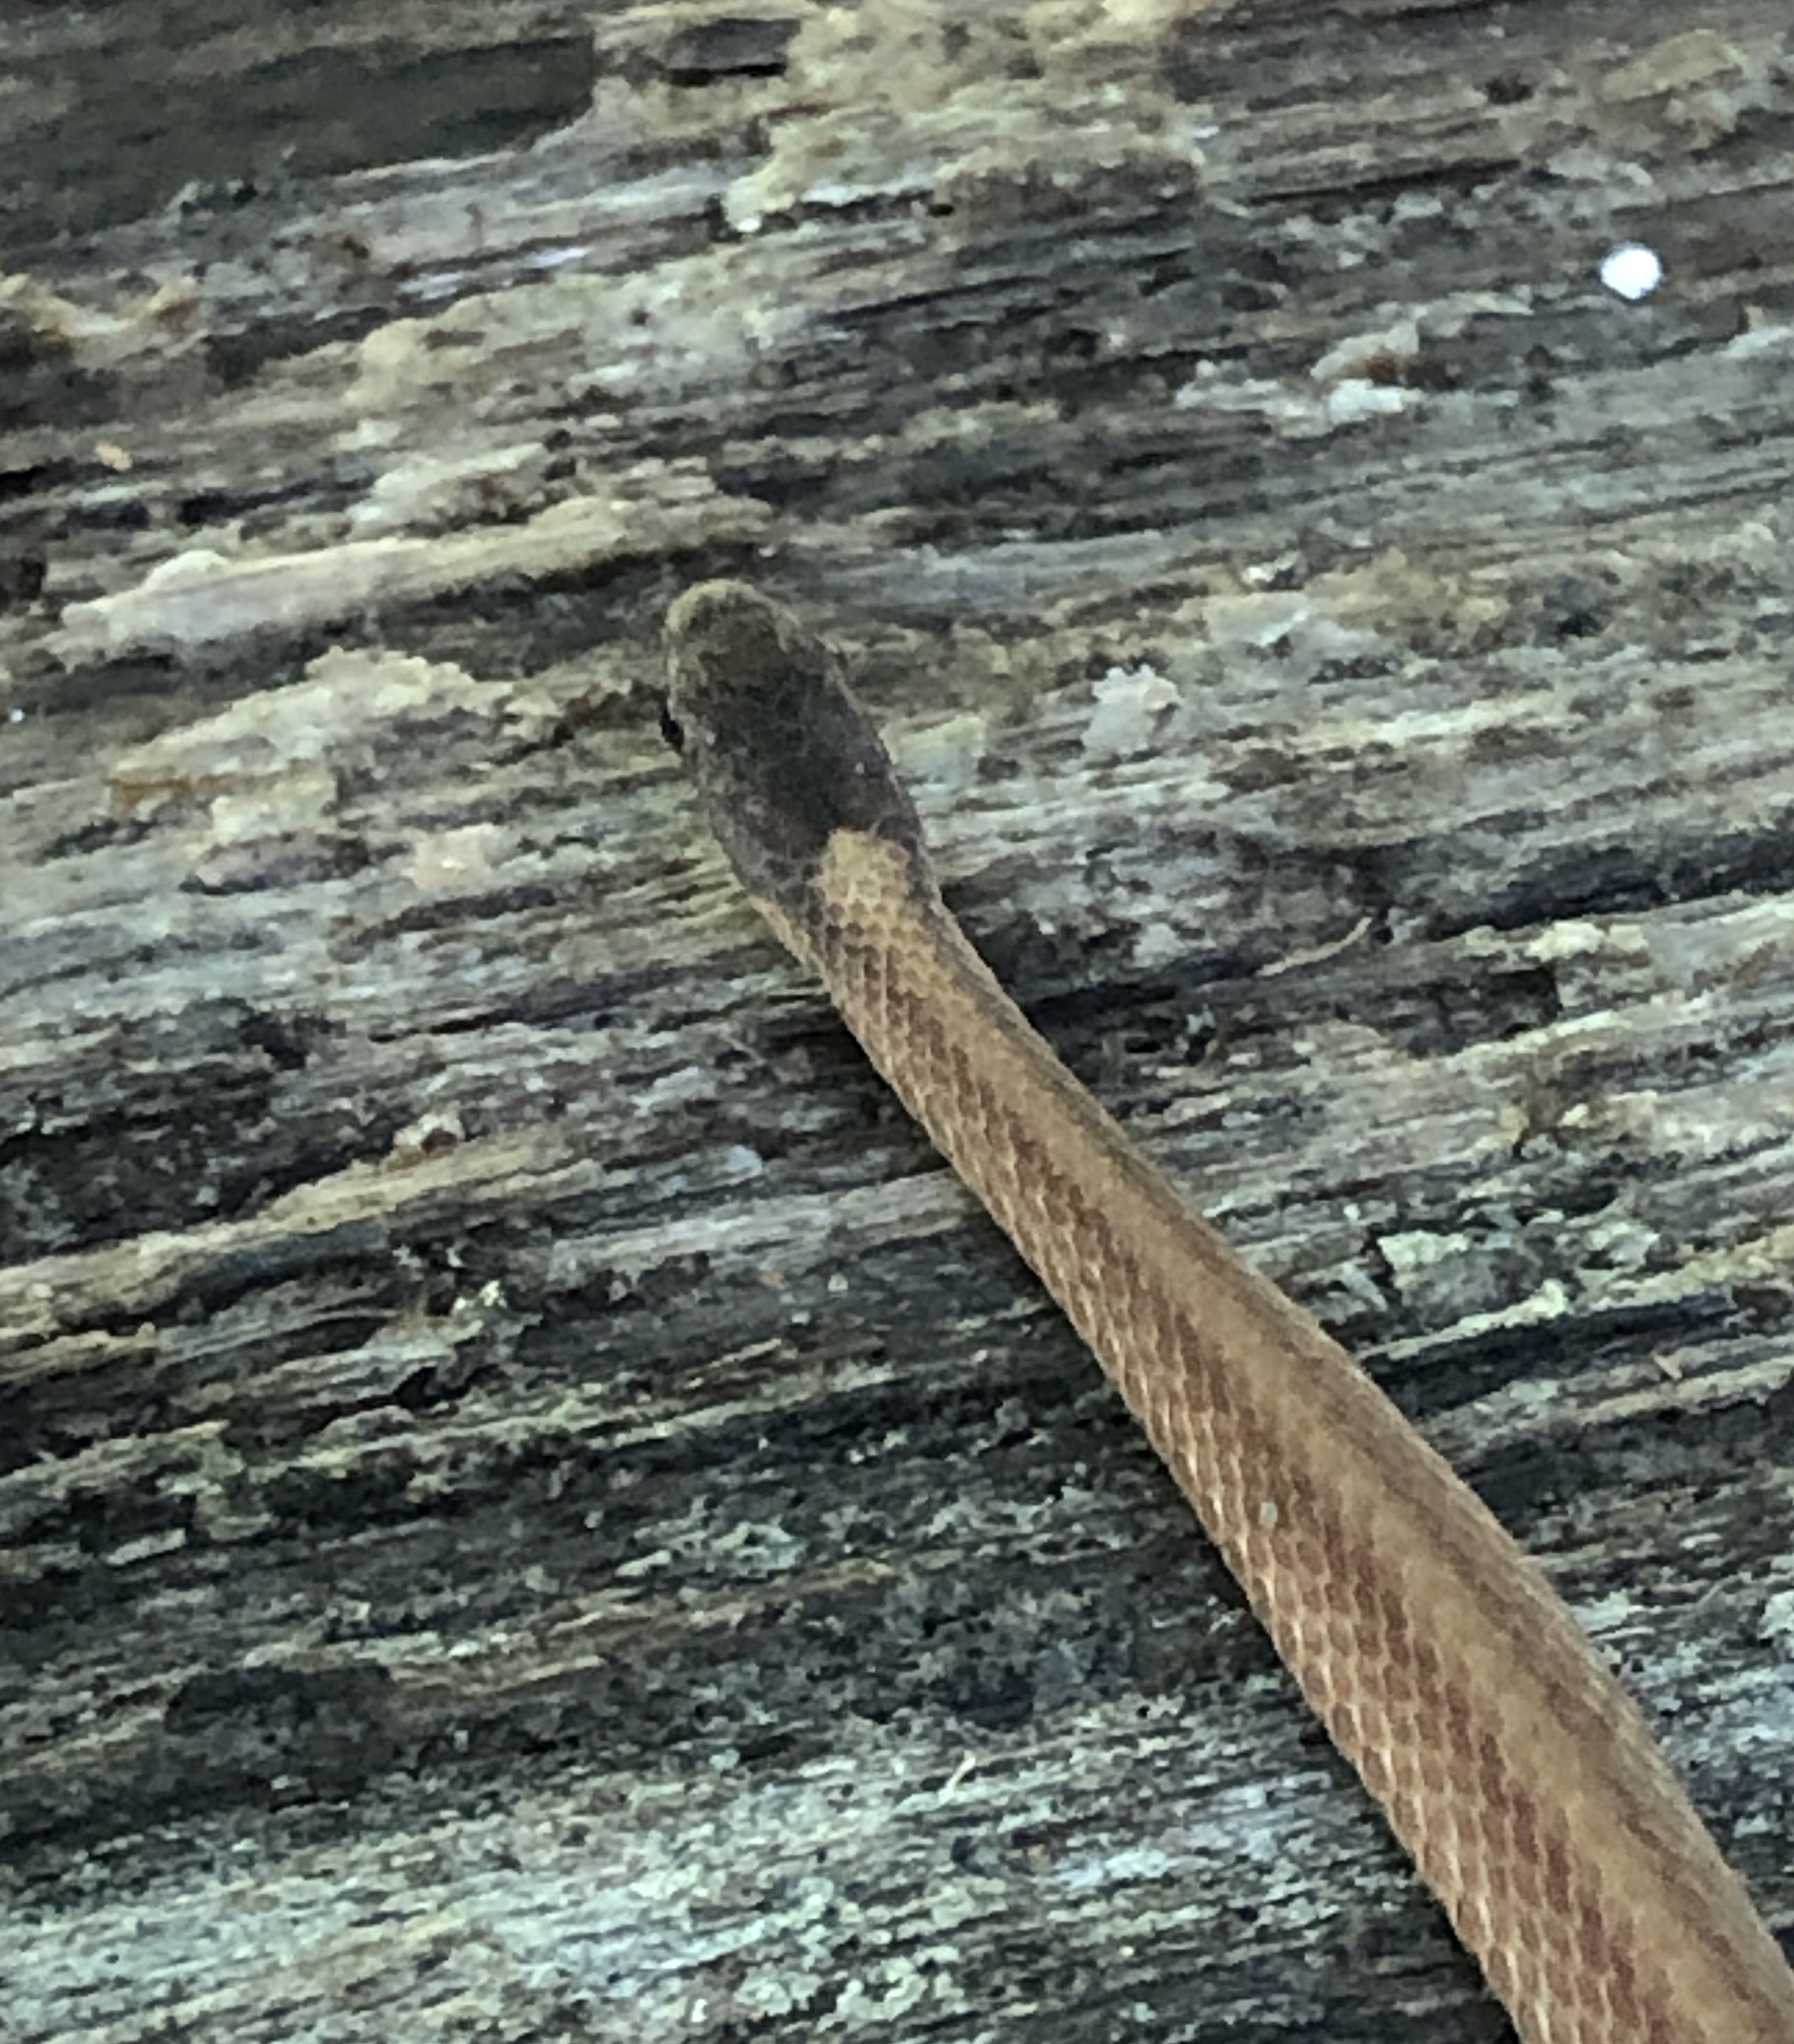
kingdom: Animalia
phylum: Chordata
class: Squamata
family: Colubridae
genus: Storeria
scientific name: Storeria occipitomaculata
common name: Redbelly snake
